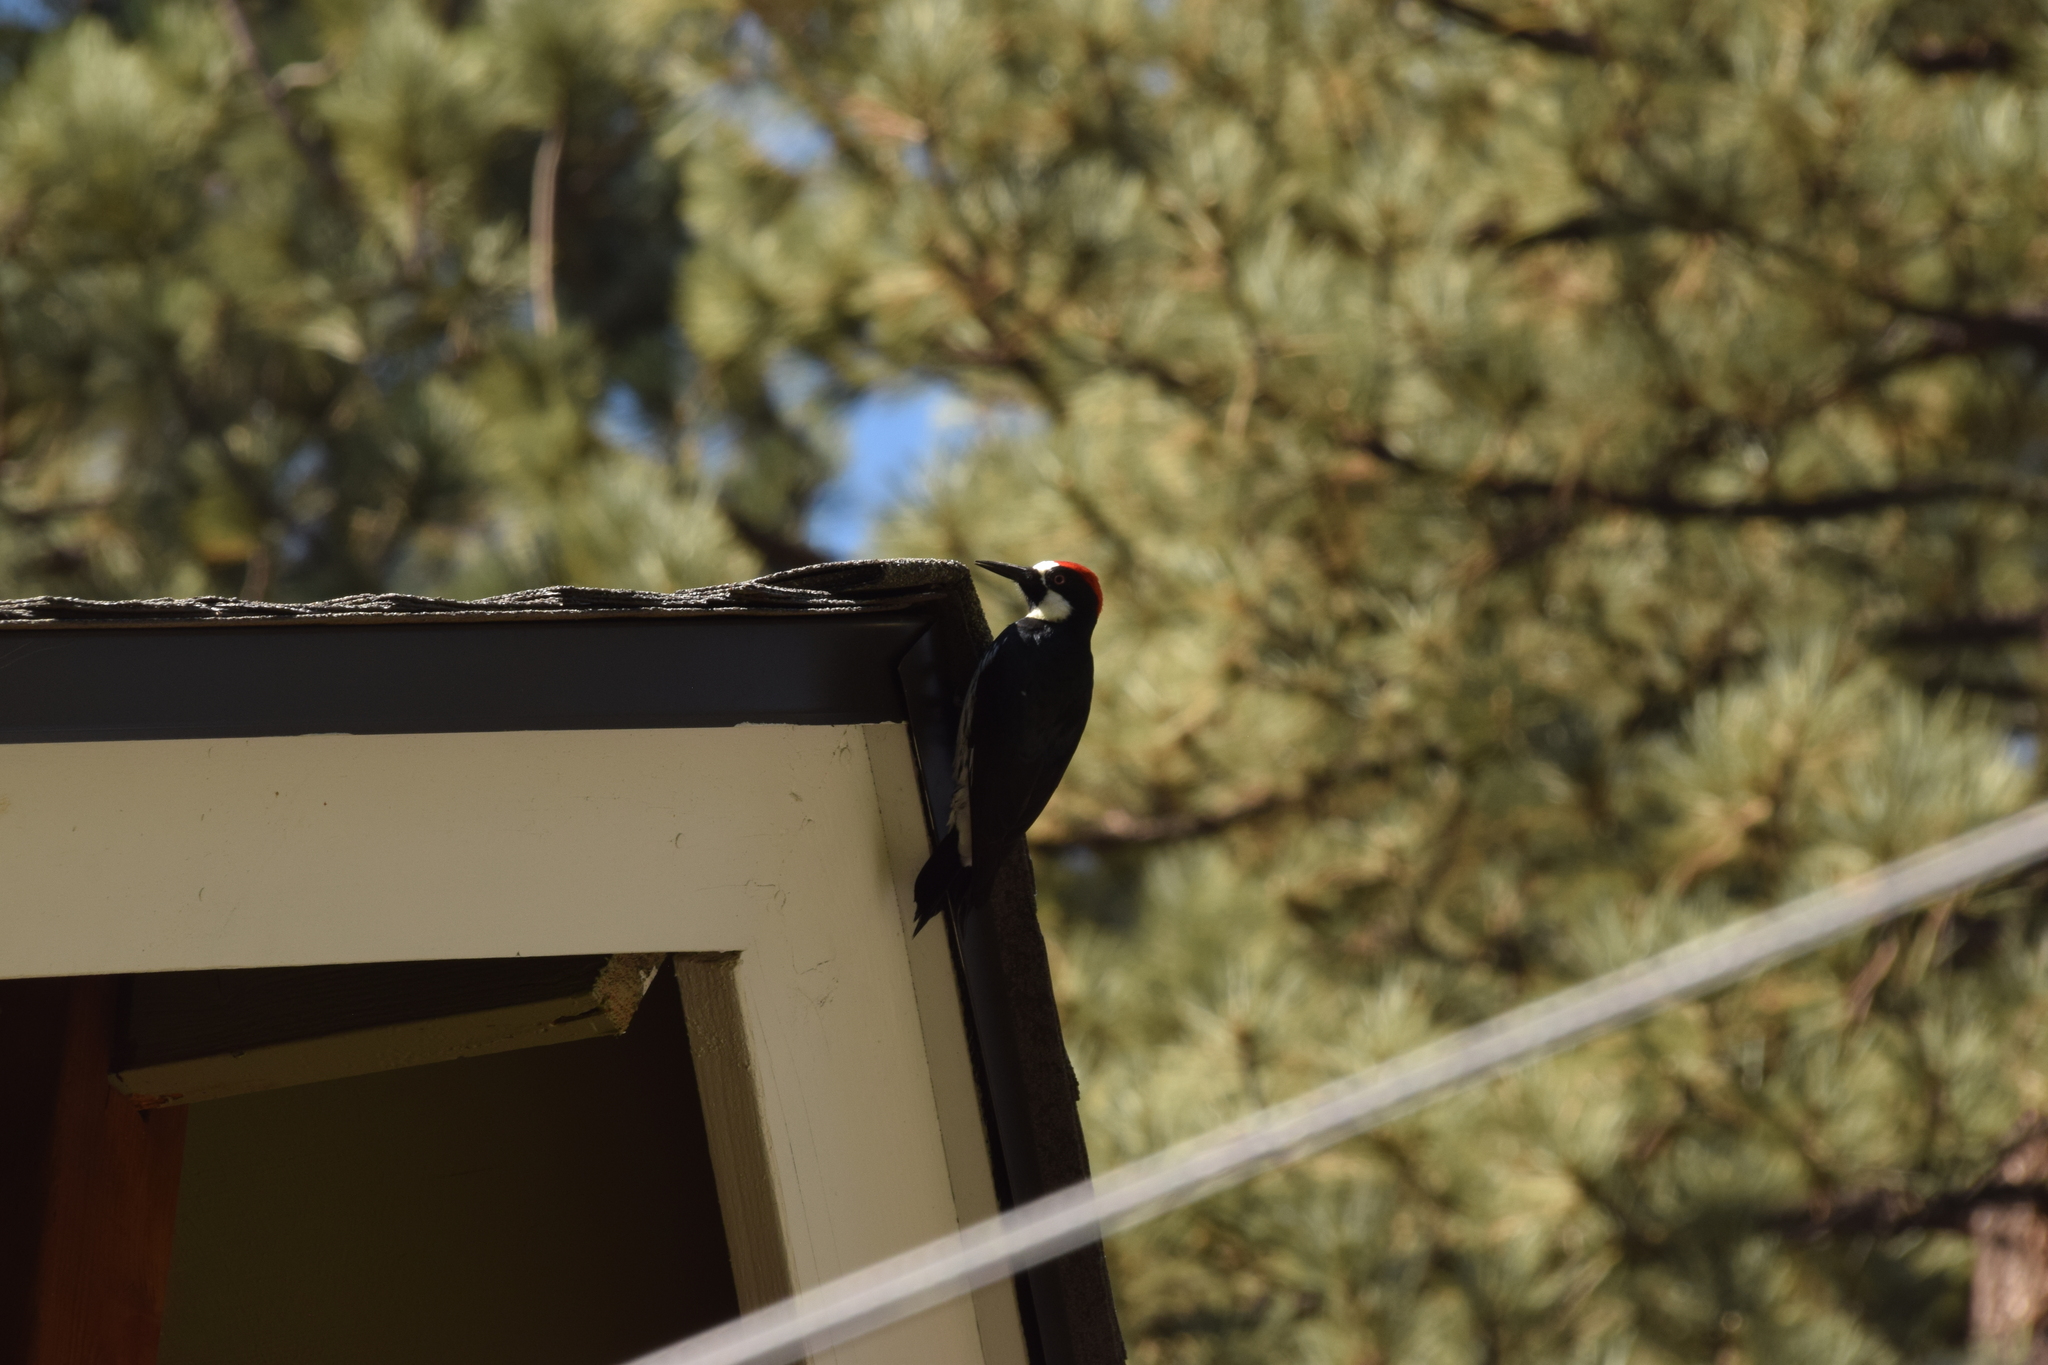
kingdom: Animalia
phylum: Chordata
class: Aves
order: Piciformes
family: Picidae
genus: Melanerpes
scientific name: Melanerpes formicivorus
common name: Acorn woodpecker
